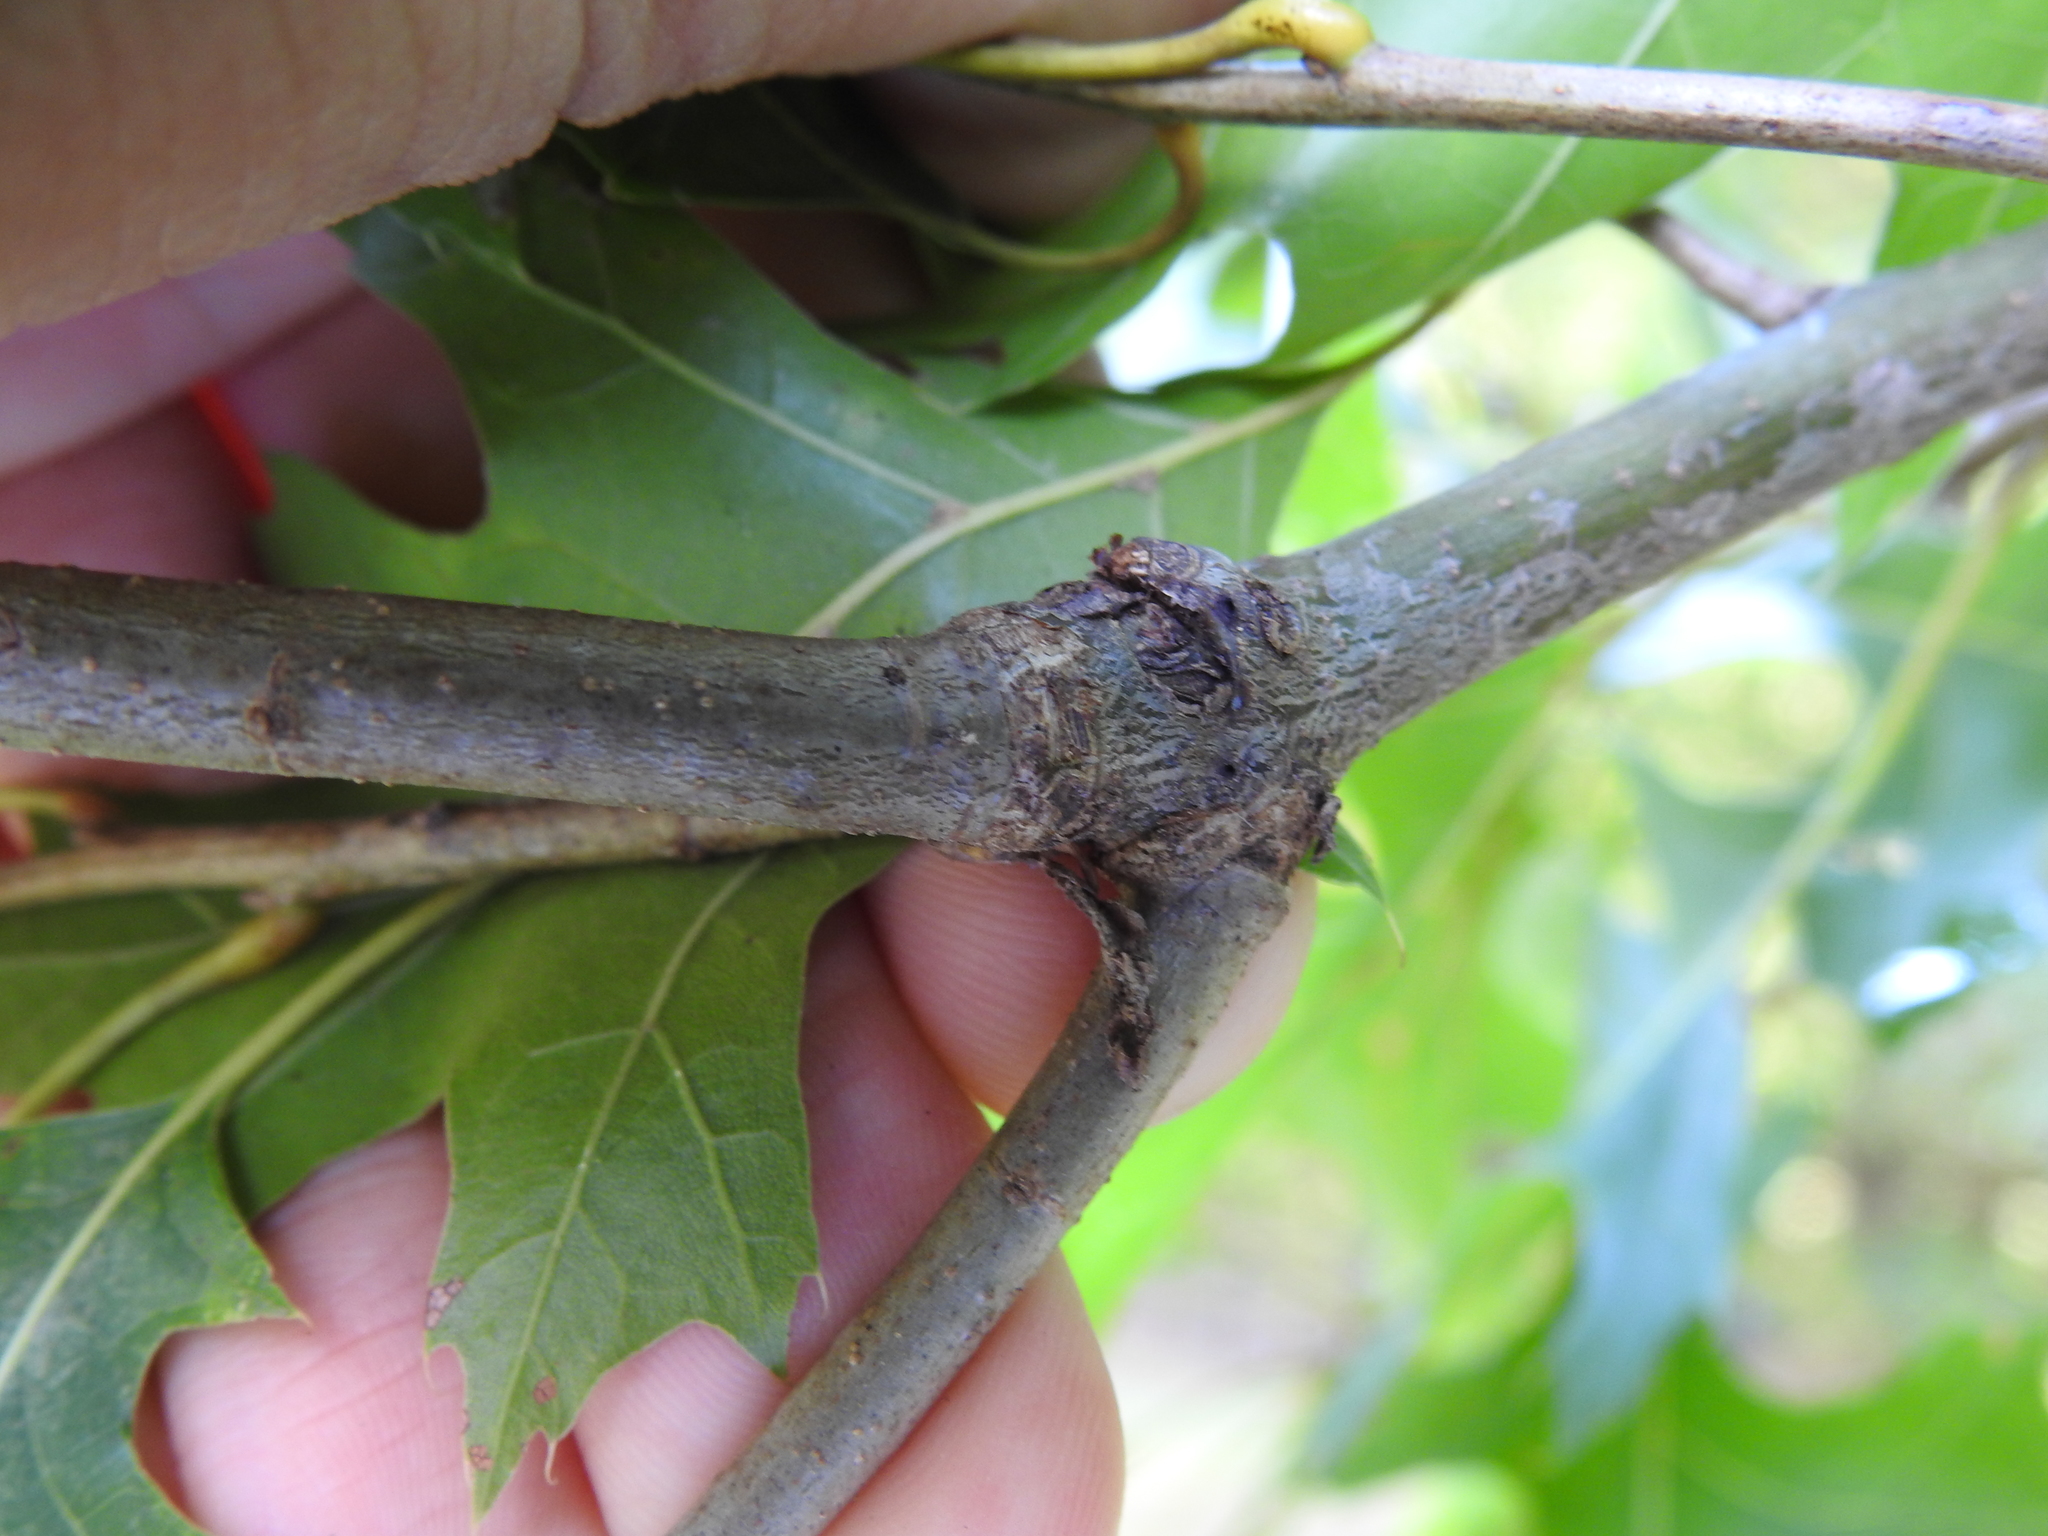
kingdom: Animalia
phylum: Arthropoda
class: Insecta
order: Hymenoptera
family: Cynipidae
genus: Zapatella
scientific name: Zapatella
